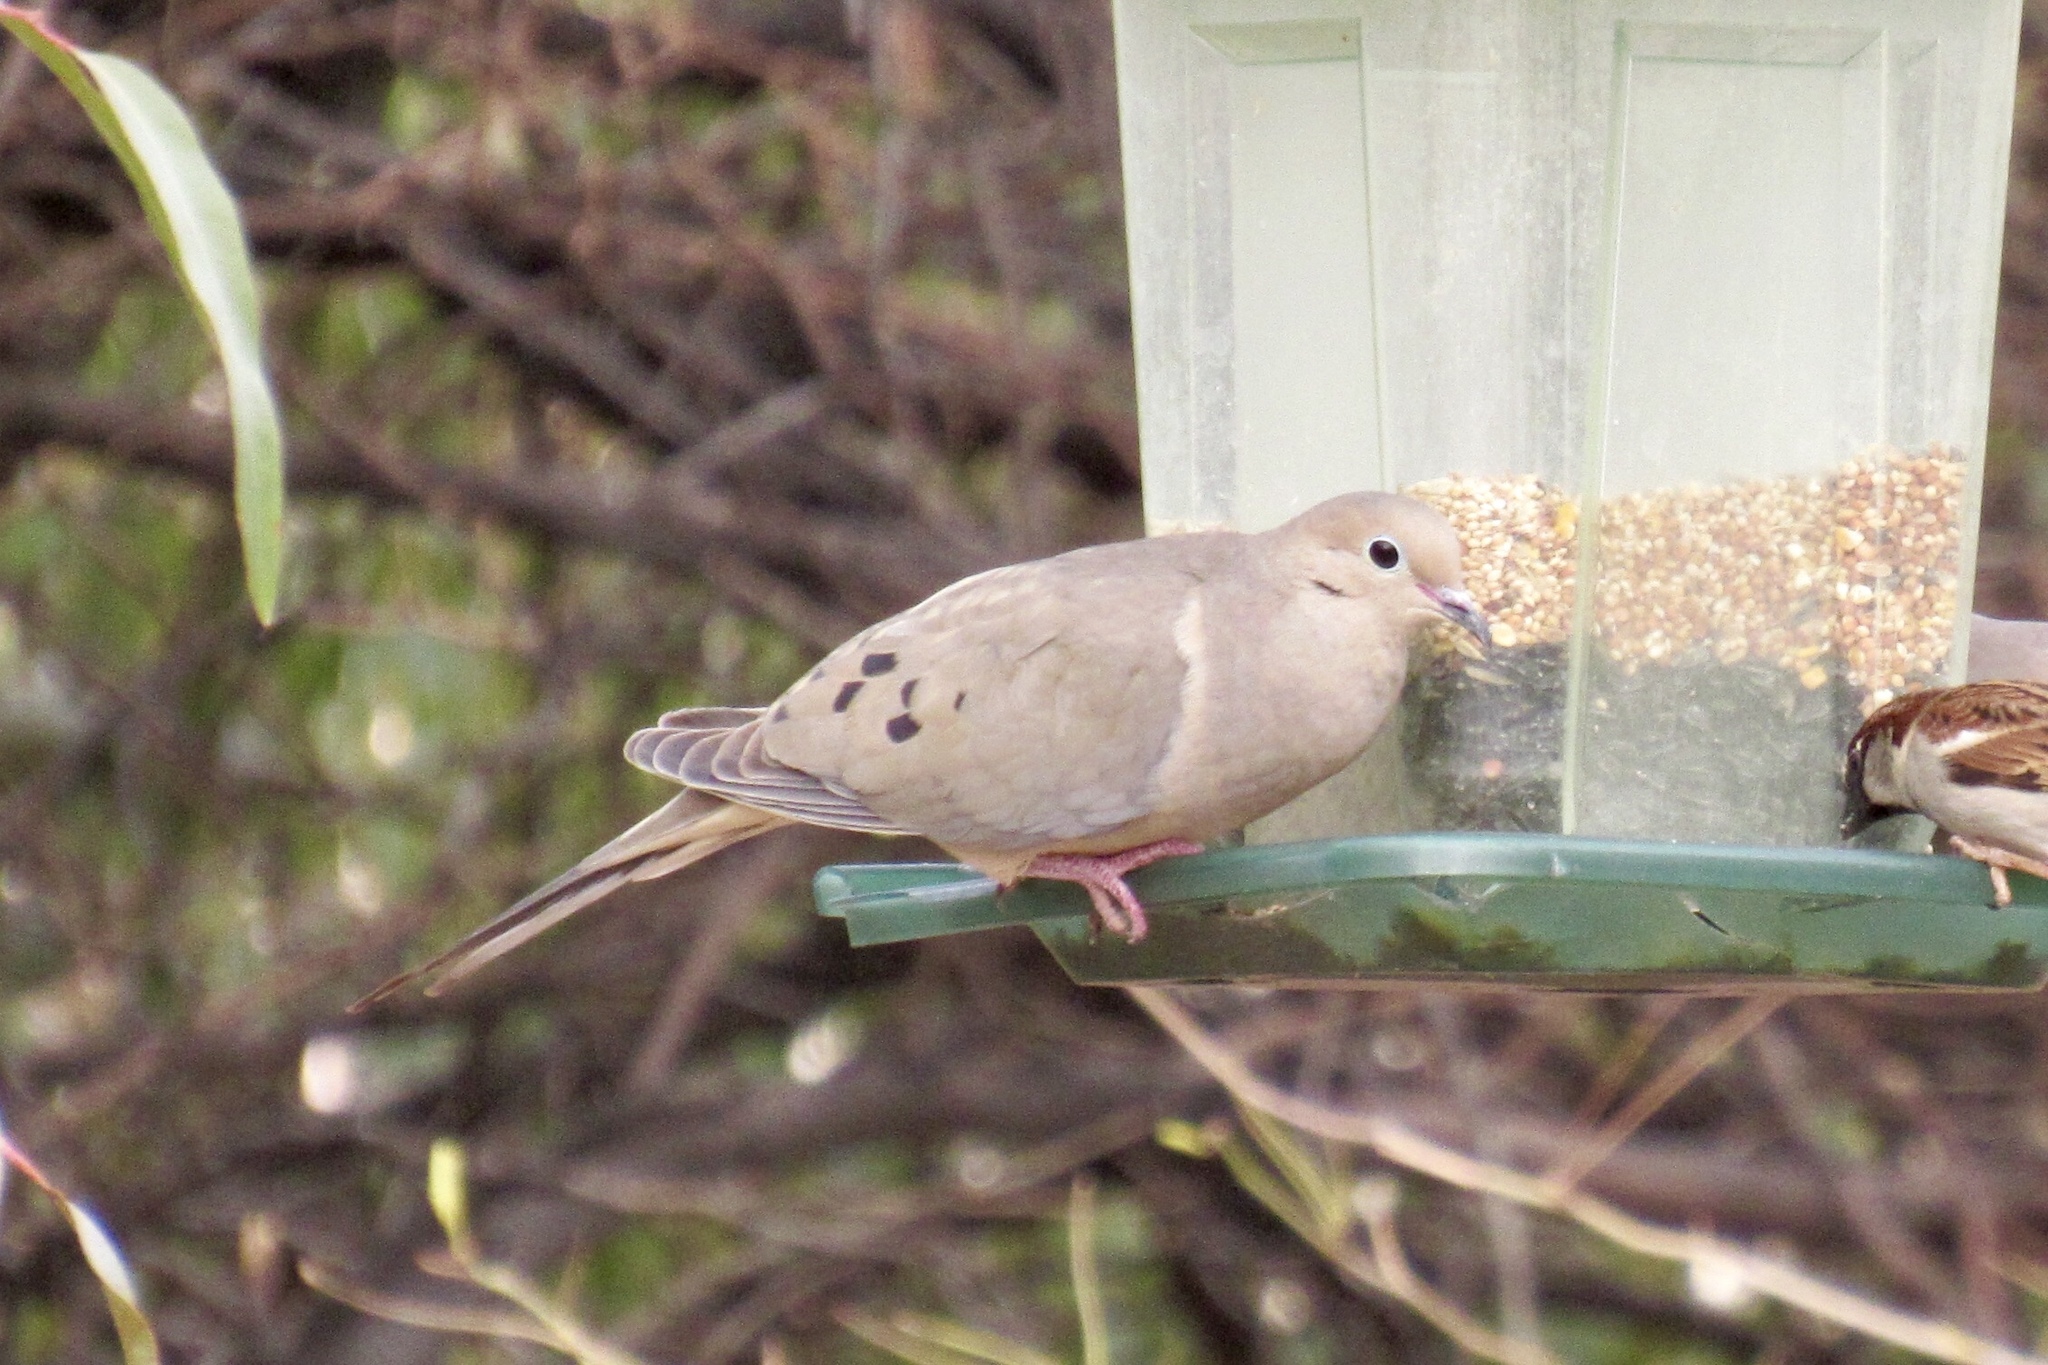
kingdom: Animalia
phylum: Chordata
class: Aves
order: Columbiformes
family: Columbidae
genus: Zenaida
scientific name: Zenaida macroura
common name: Mourning dove
